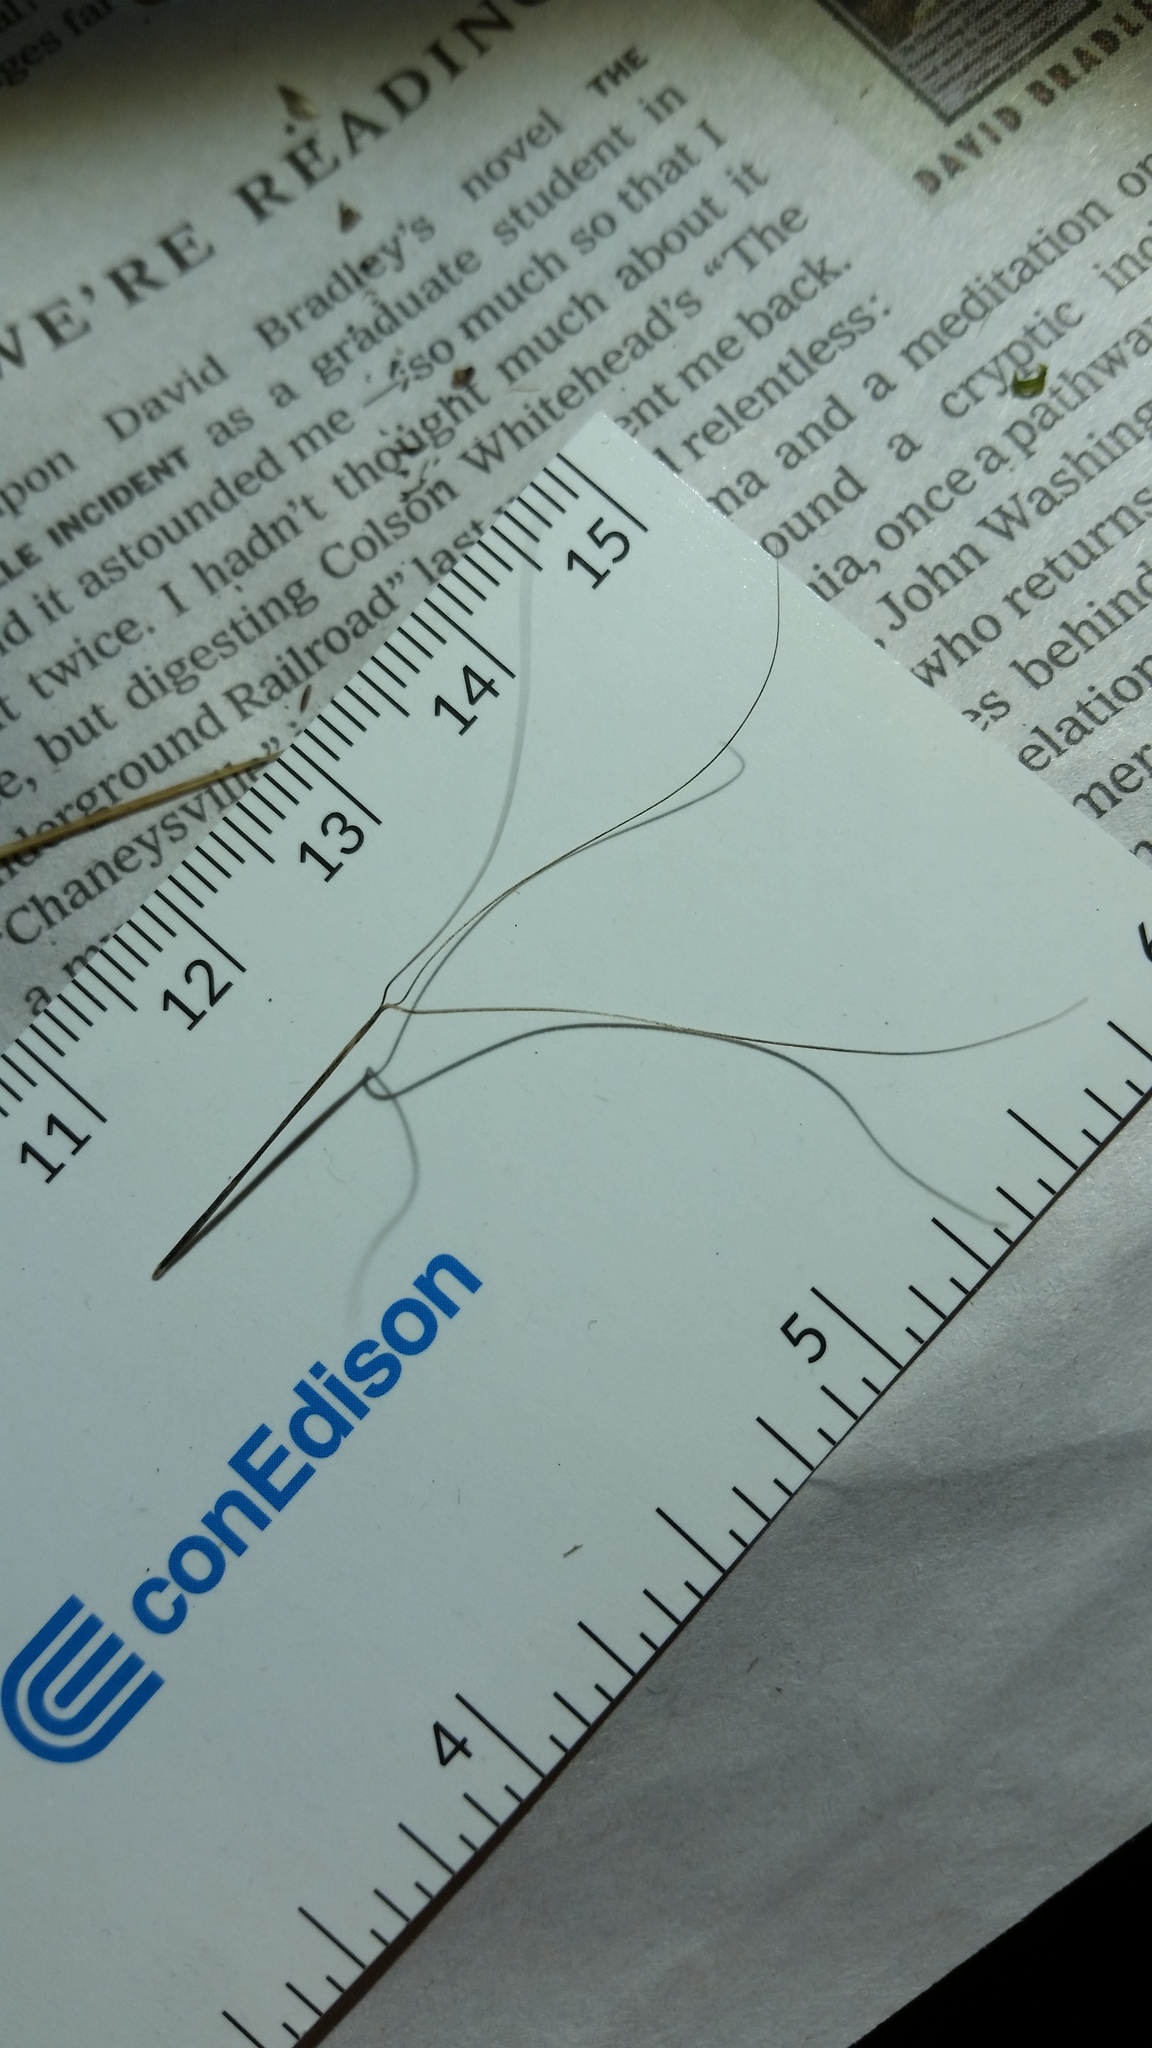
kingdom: Plantae
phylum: Tracheophyta
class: Liliopsida
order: Poales
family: Poaceae
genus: Aristida
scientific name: Aristida oligantha
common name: Few-flowered aristida
